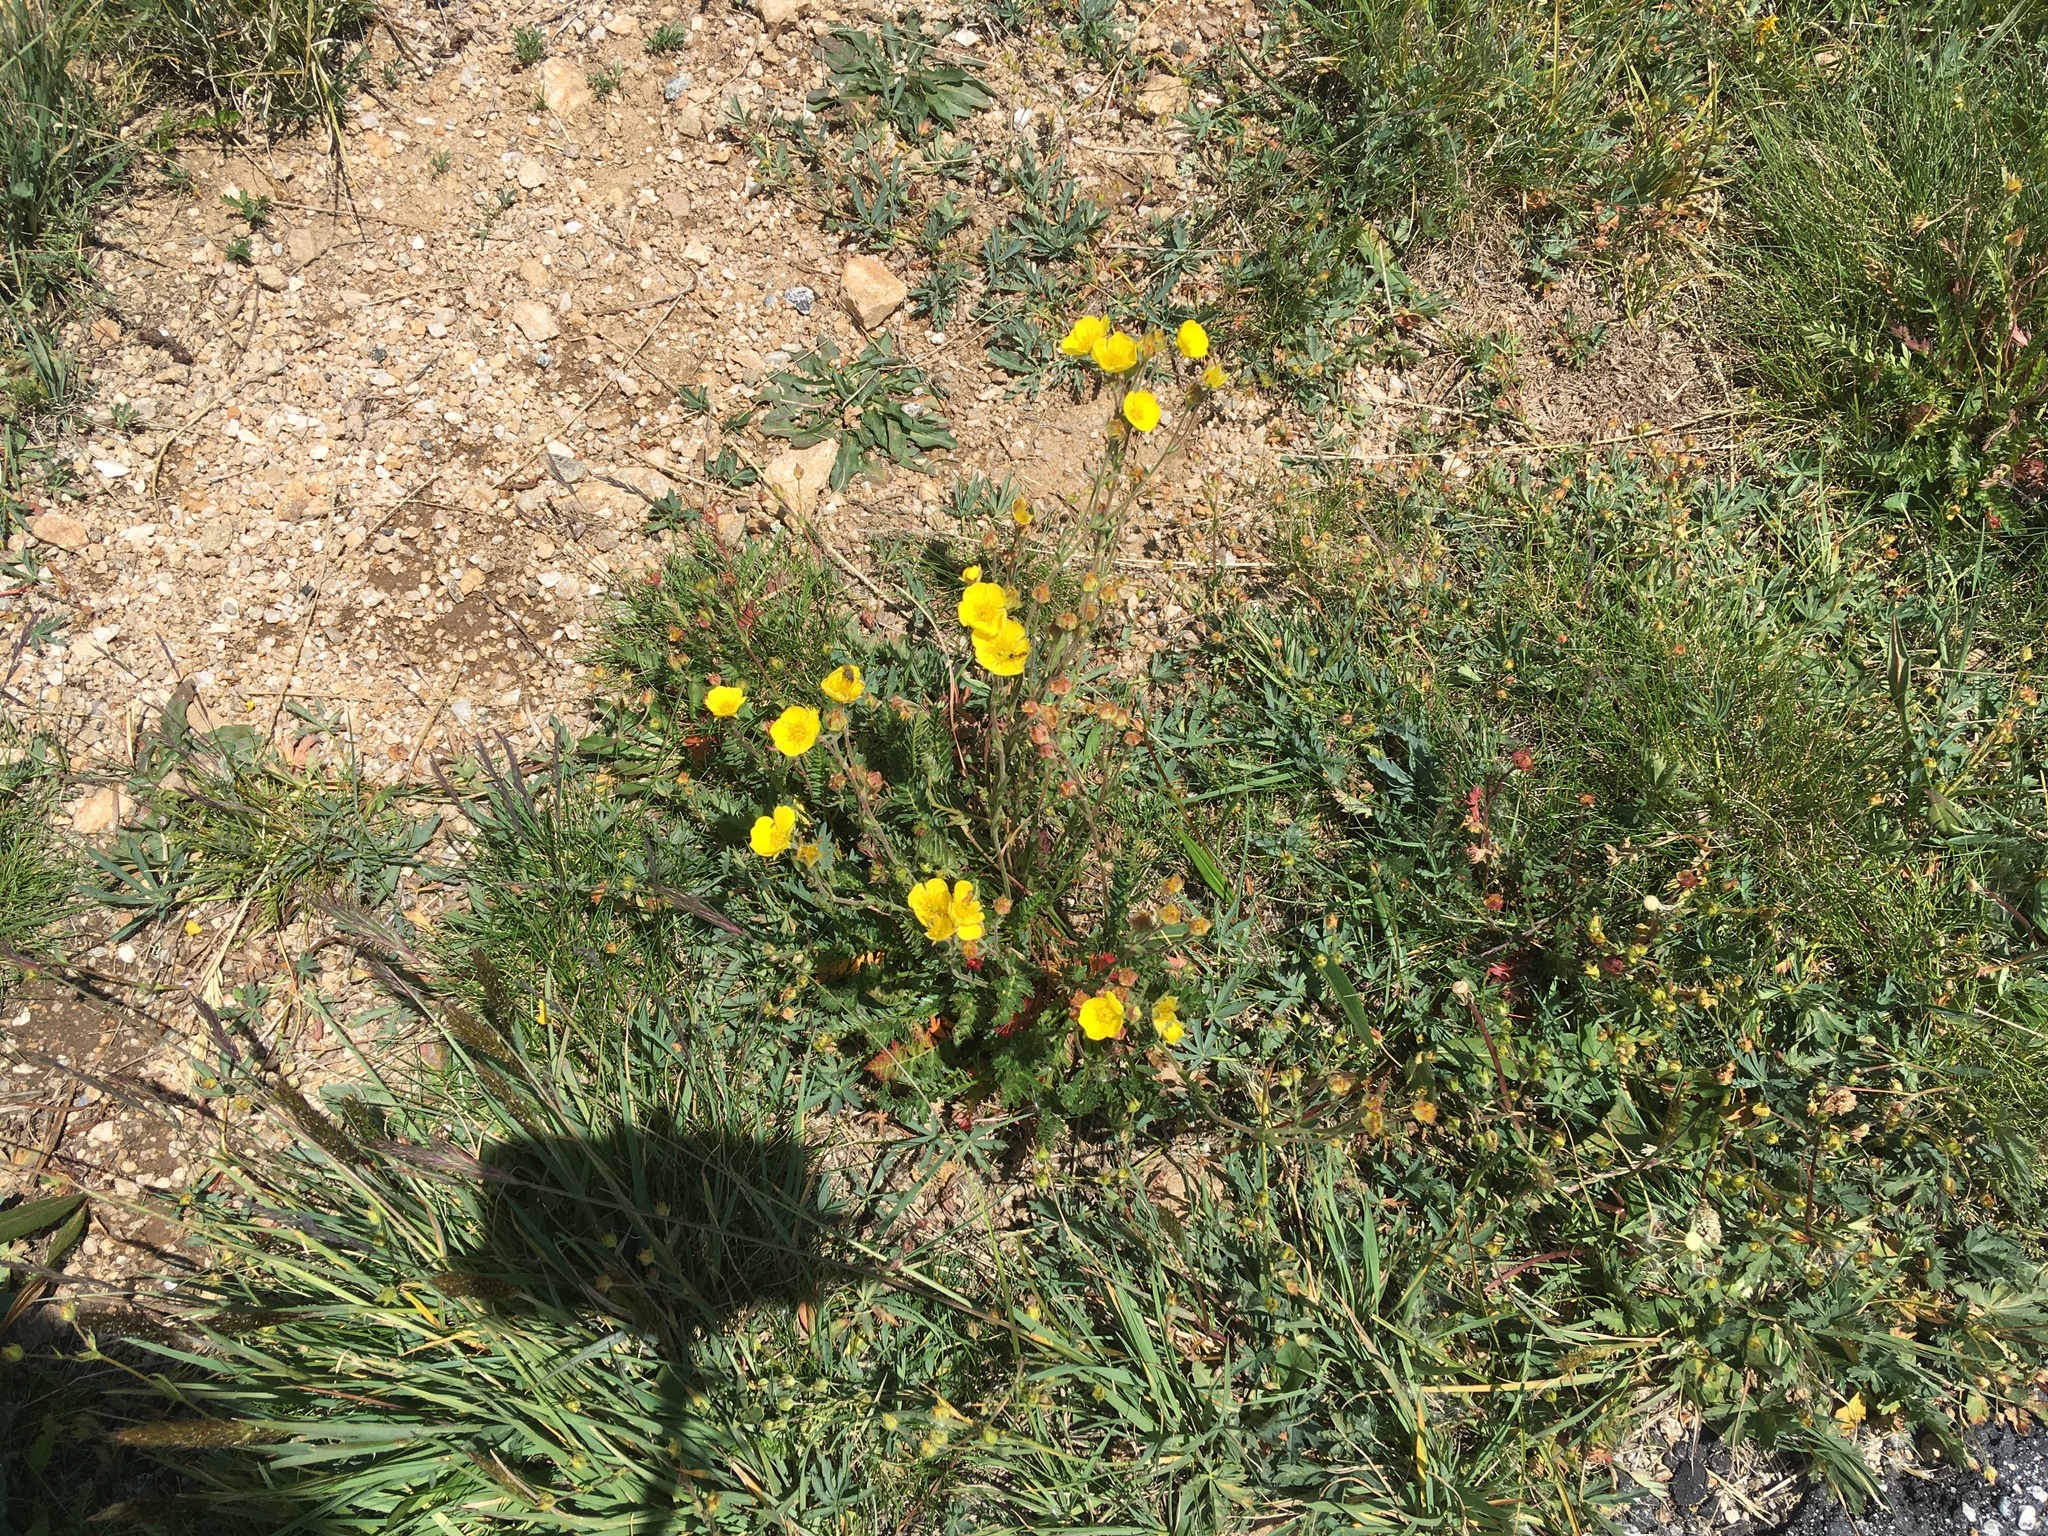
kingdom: Plantae
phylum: Tracheophyta
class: Magnoliopsida
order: Rosales
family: Rosaceae
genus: Geum
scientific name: Geum rossii
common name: Alpine avens
